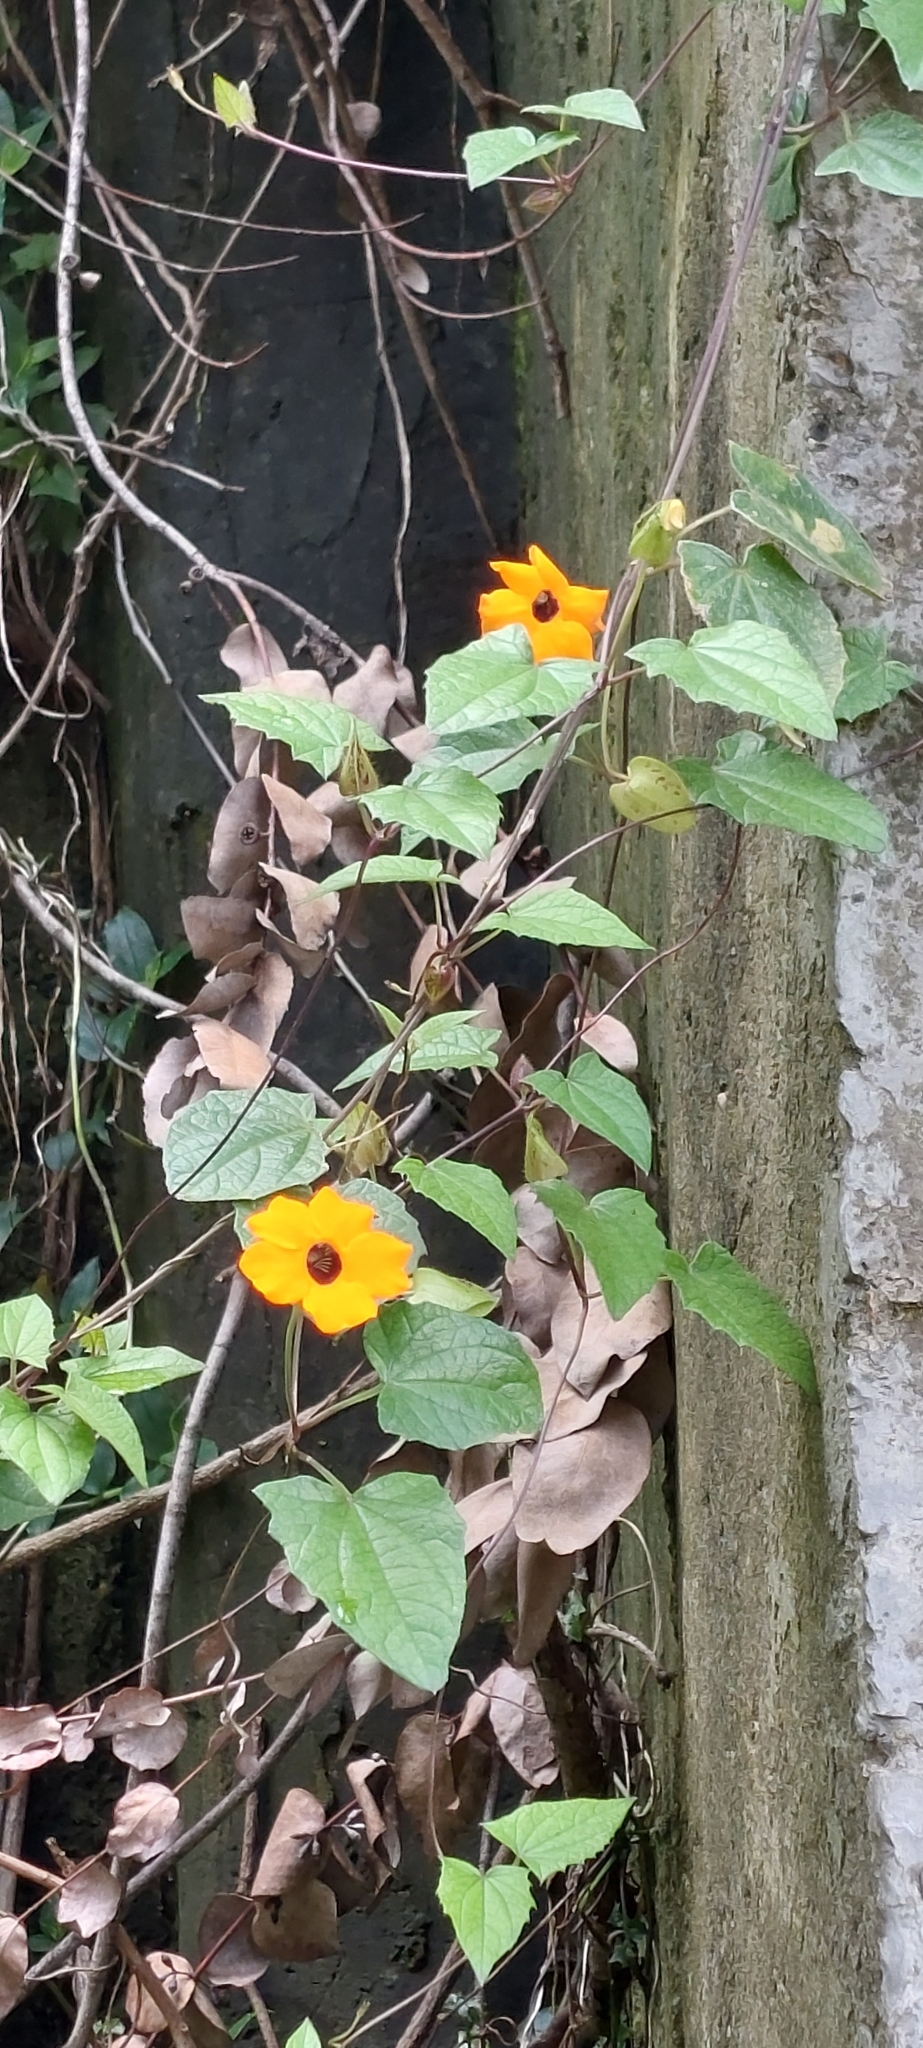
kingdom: Plantae
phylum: Tracheophyta
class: Magnoliopsida
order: Lamiales
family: Acanthaceae
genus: Thunbergia
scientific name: Thunbergia alata
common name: Blackeyed susan vine
